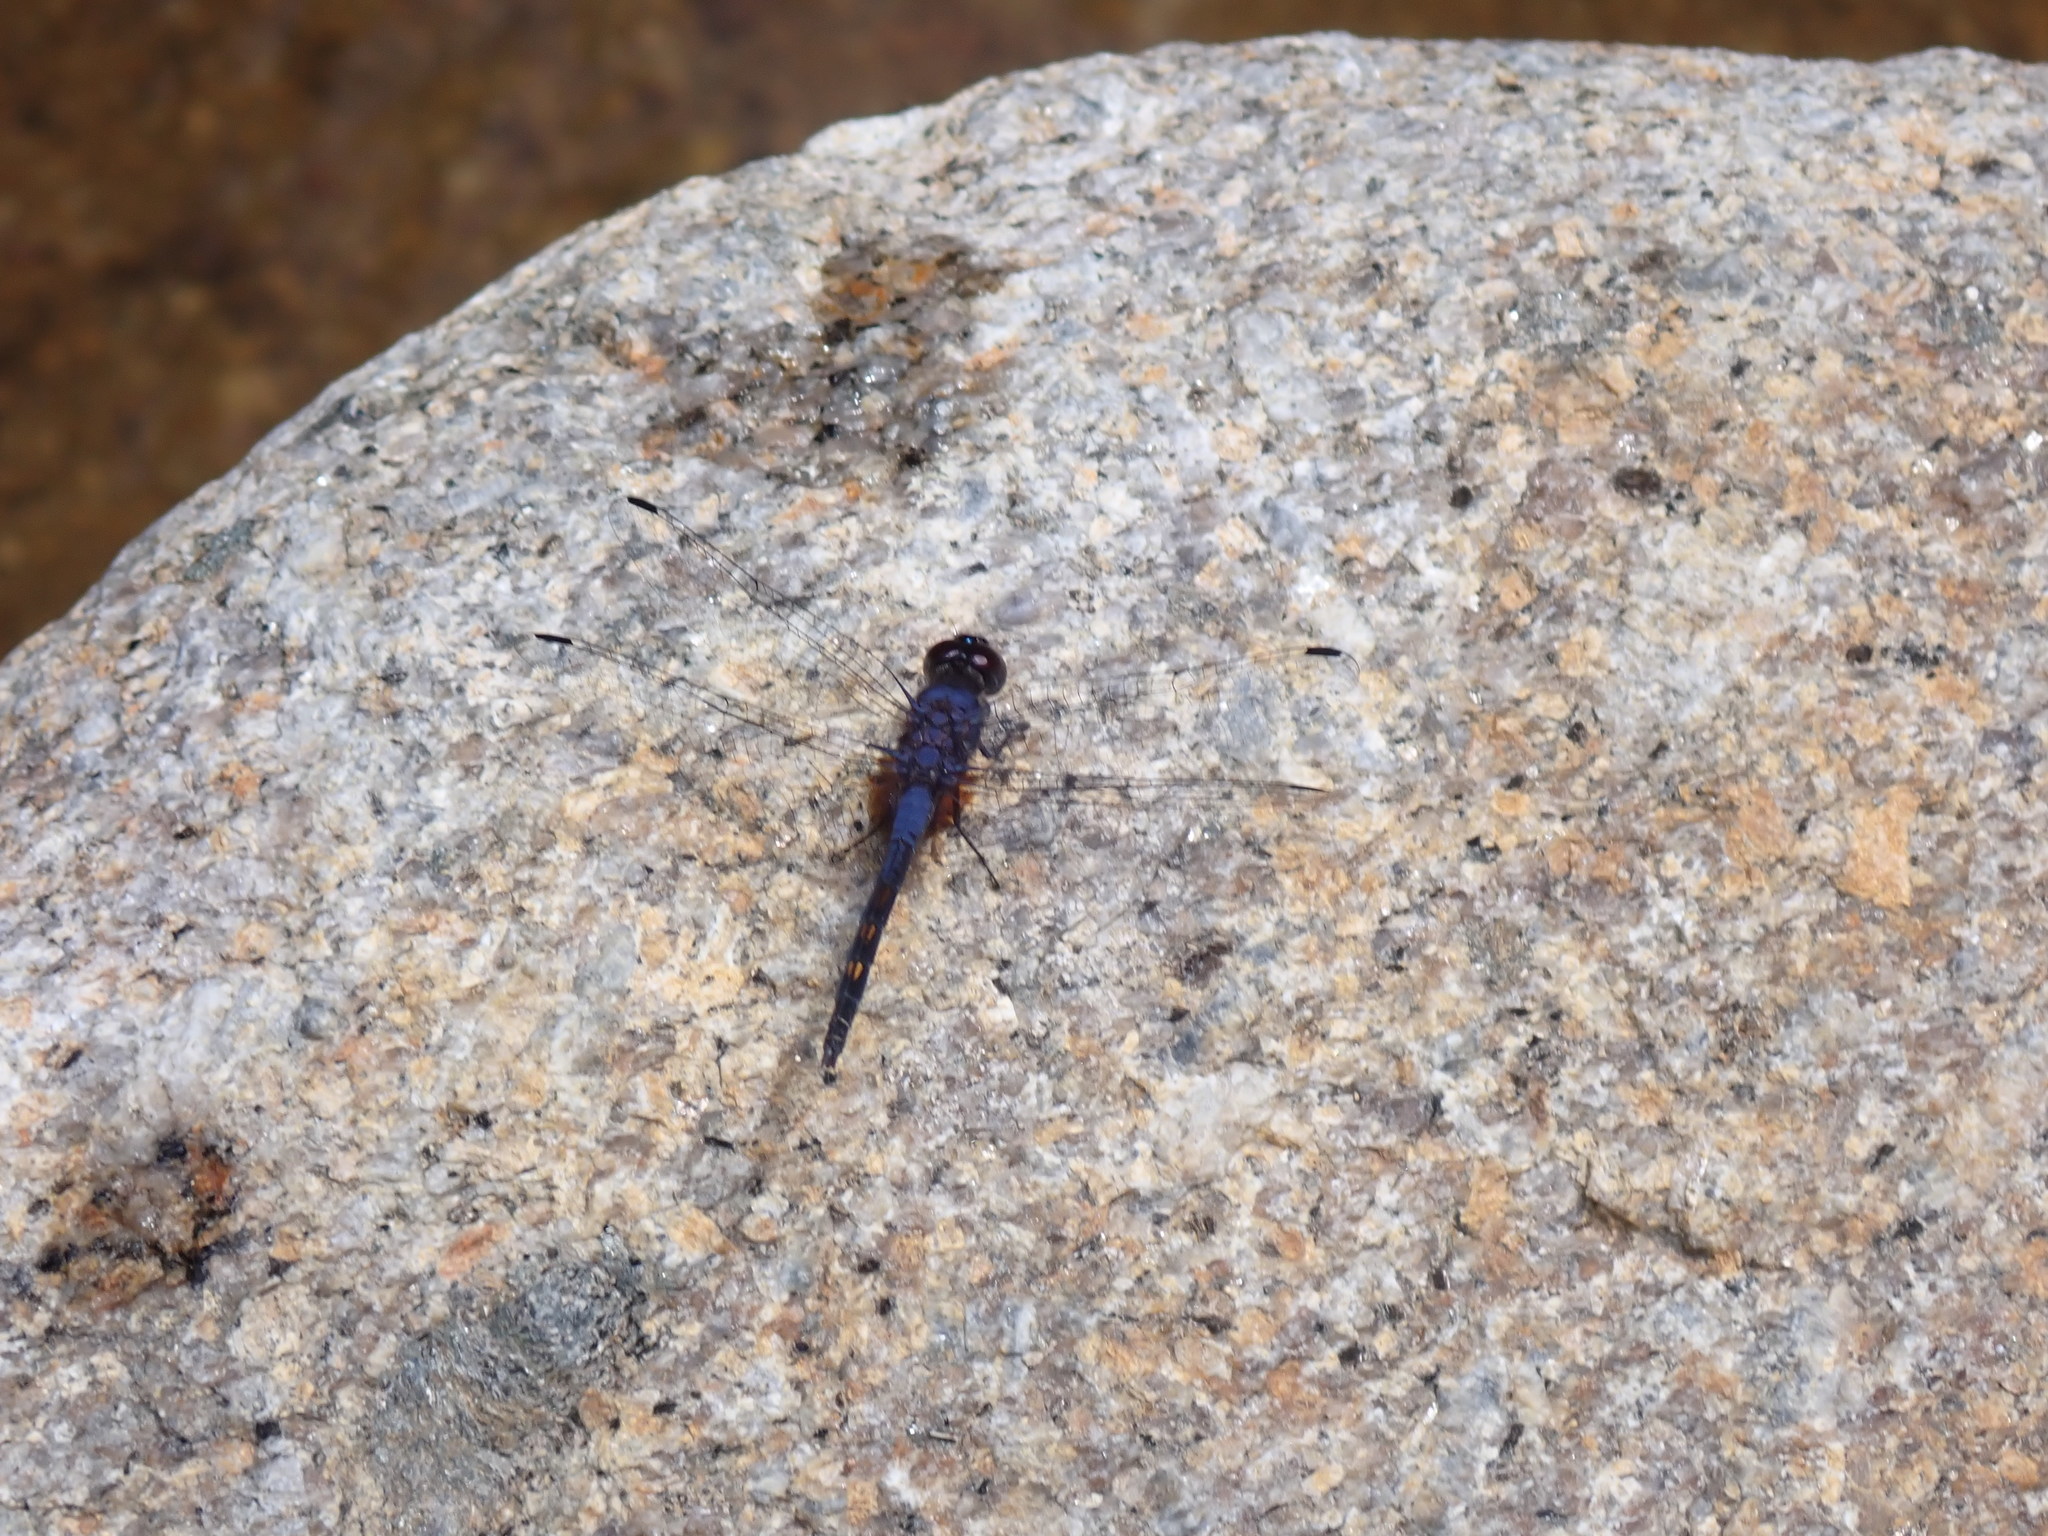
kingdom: Animalia
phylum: Arthropoda
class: Insecta
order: Odonata
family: Libellulidae
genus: Trithemis
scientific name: Trithemis festiva
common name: Indigo dropwing
